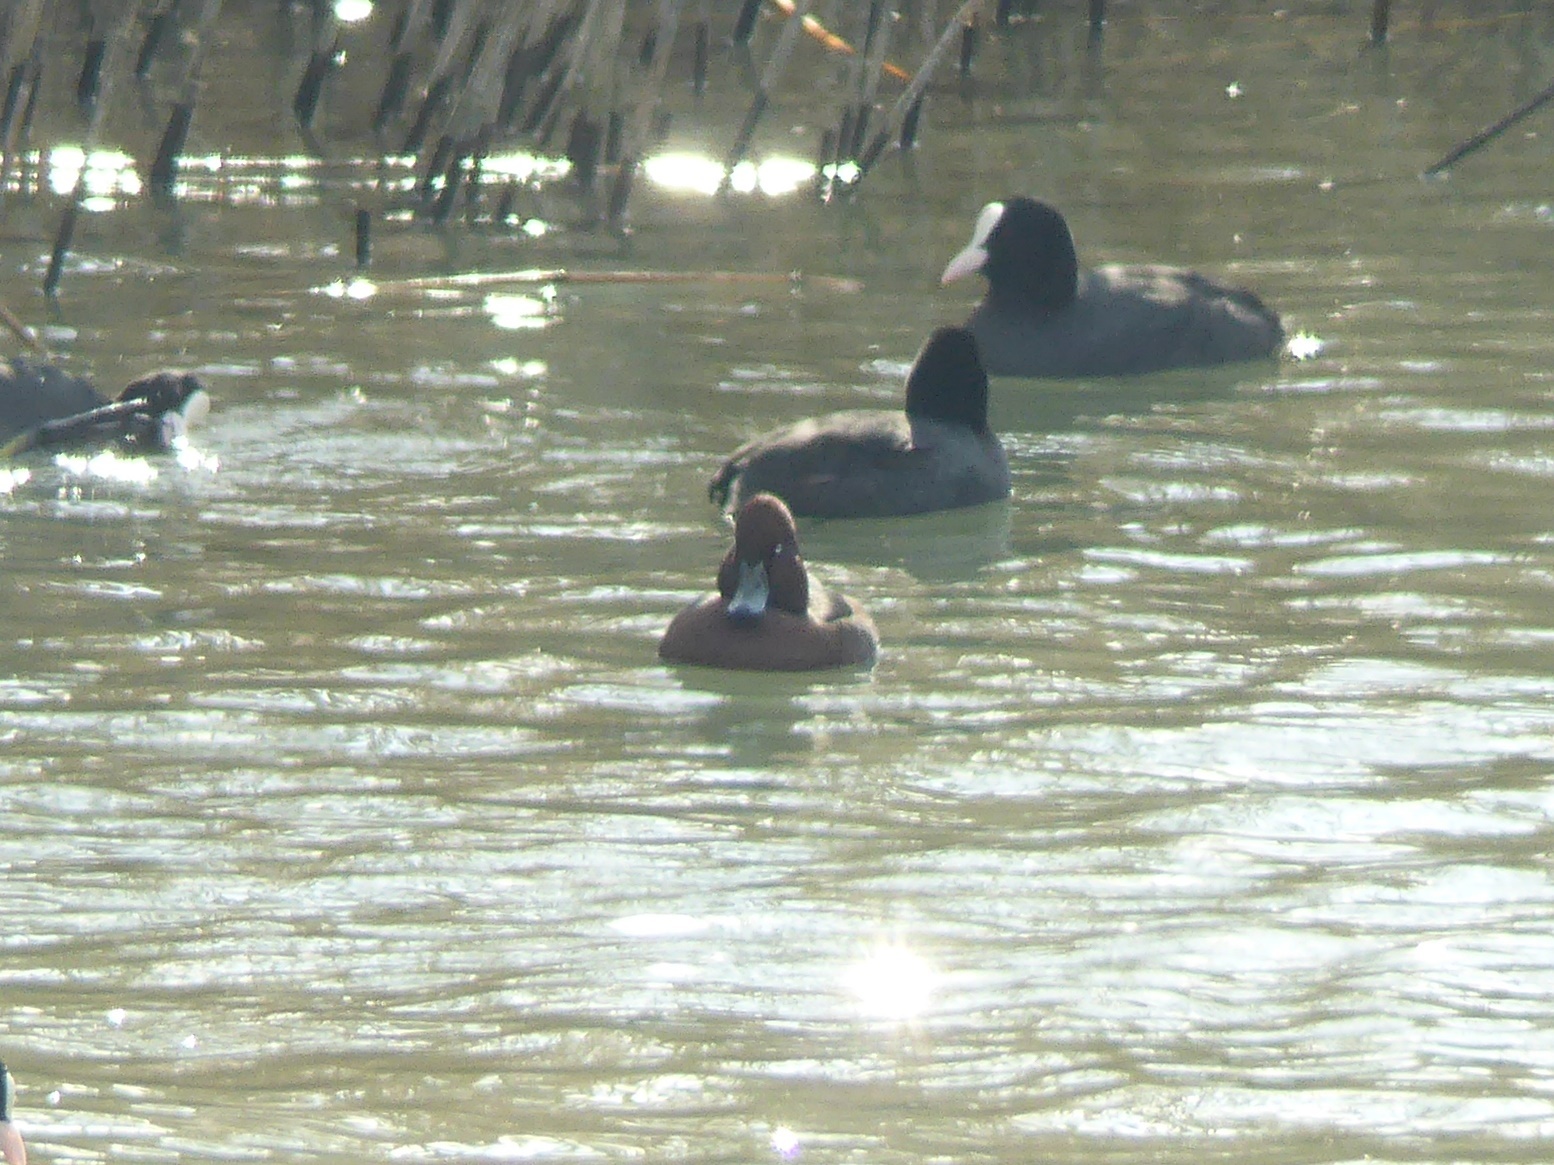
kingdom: Animalia
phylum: Chordata
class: Aves
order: Anseriformes
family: Anatidae
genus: Aythya
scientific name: Aythya nyroca
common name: Ferruginous duck
